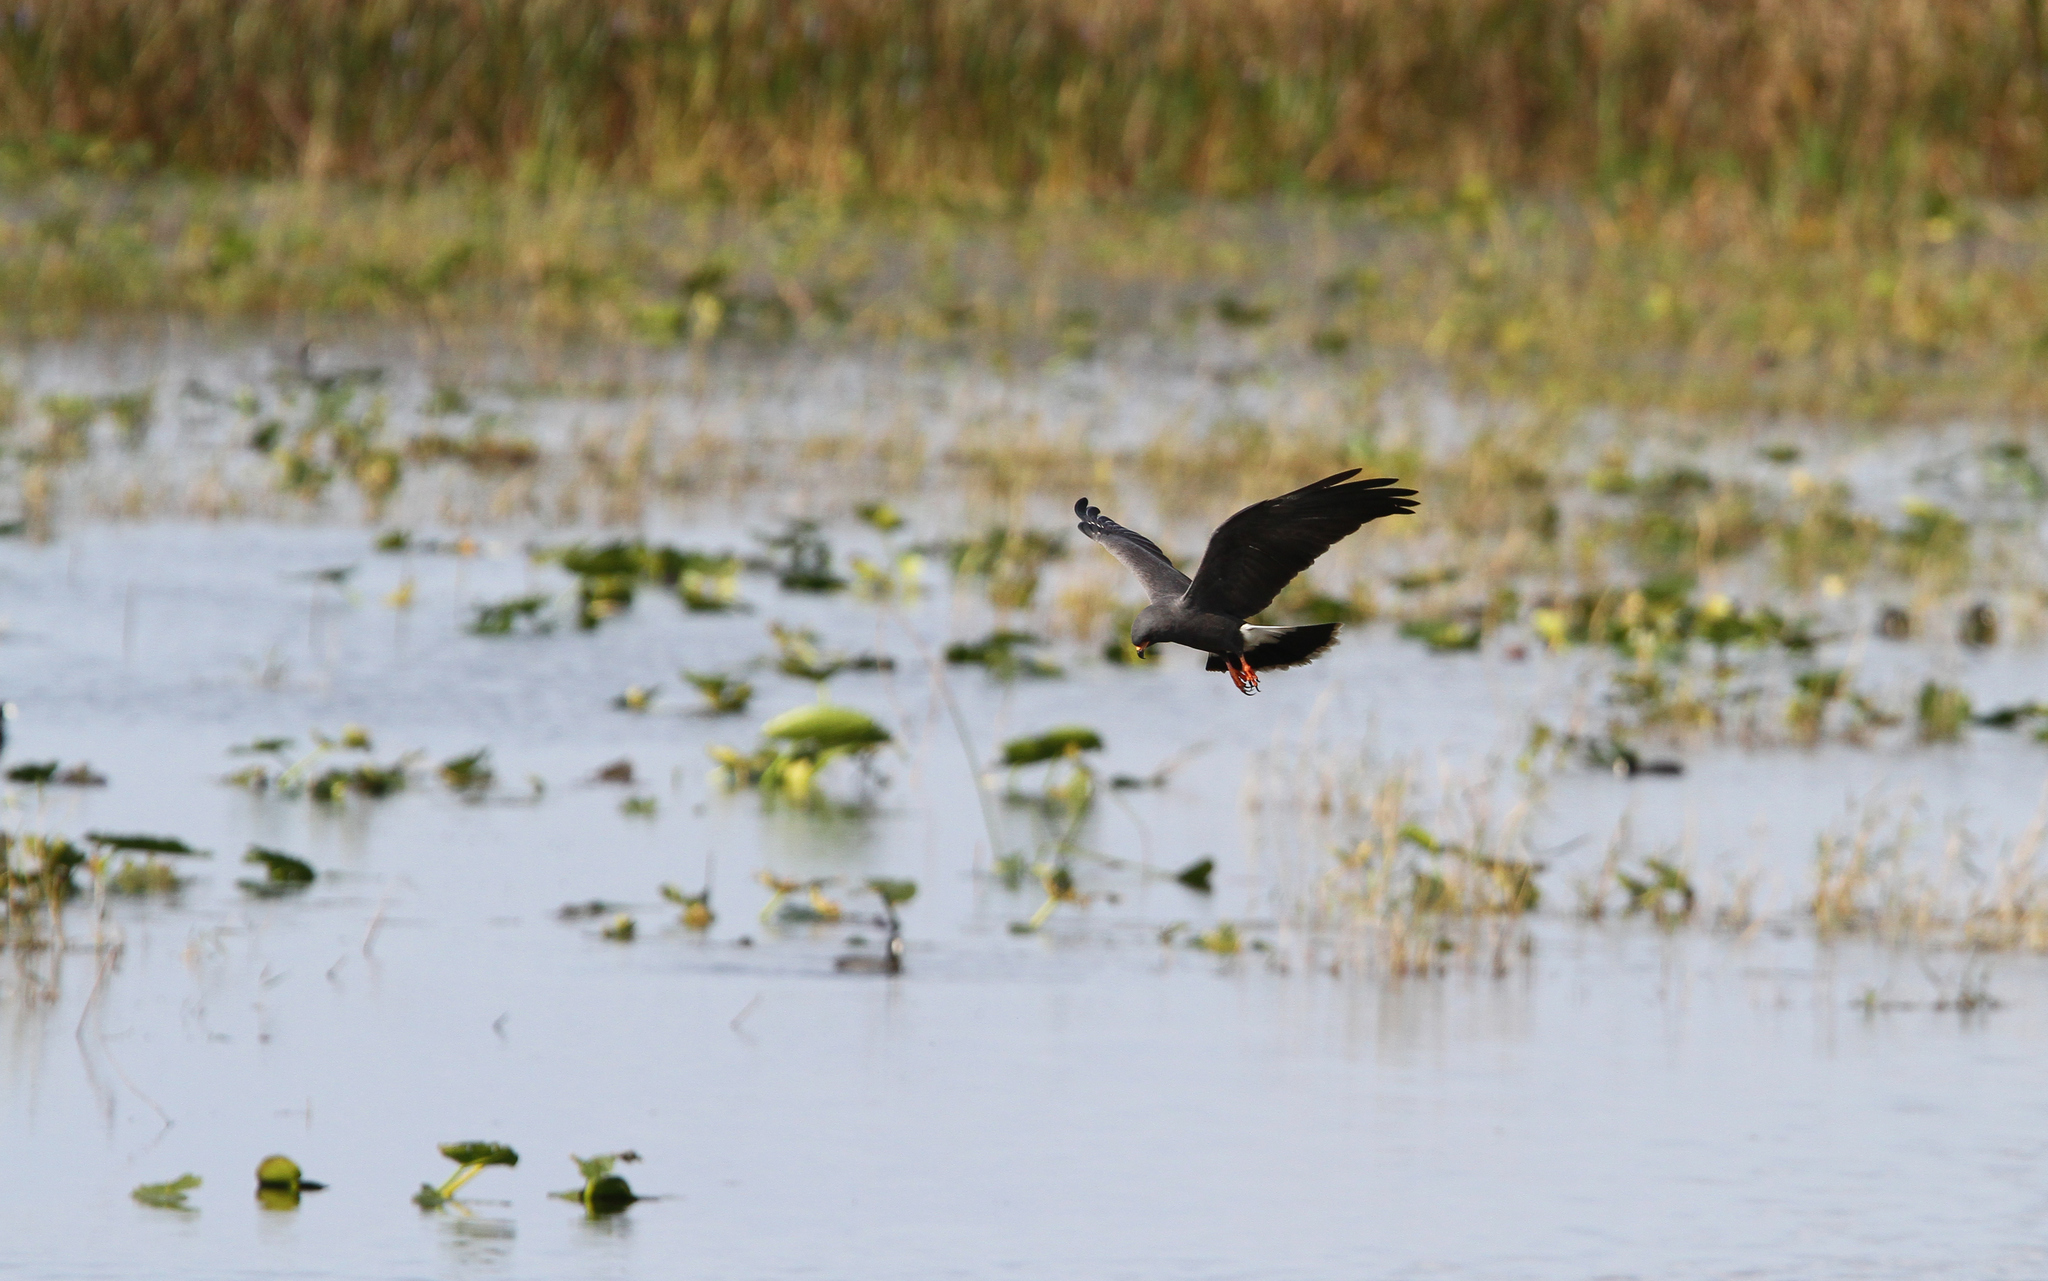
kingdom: Animalia
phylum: Chordata
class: Aves
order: Accipitriformes
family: Accipitridae
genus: Rostrhamus
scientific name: Rostrhamus sociabilis
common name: Snail kite
